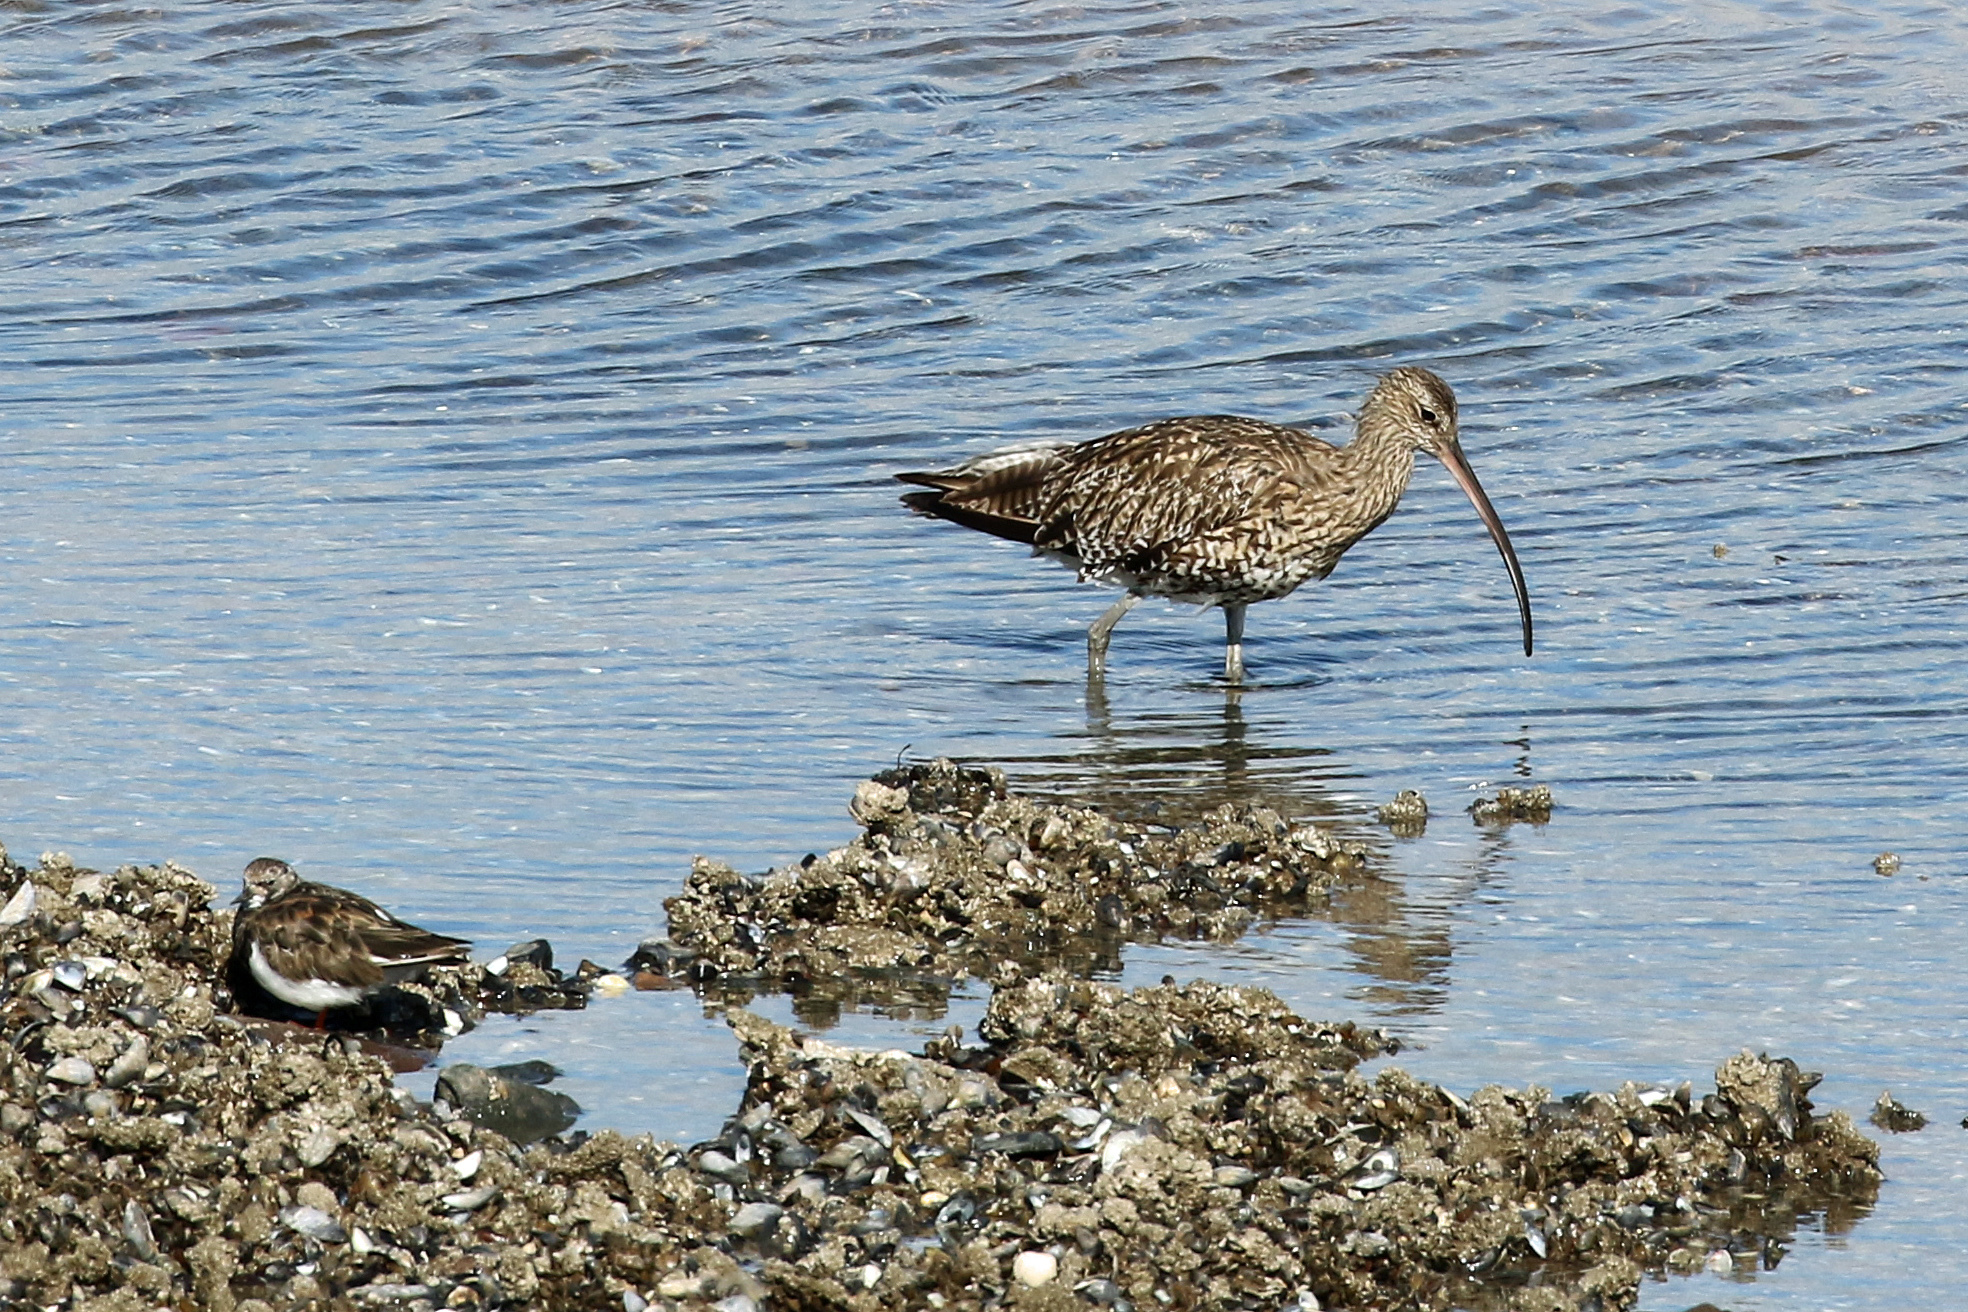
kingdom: Animalia
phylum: Chordata
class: Aves
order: Charadriiformes
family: Scolopacidae
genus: Numenius
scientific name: Numenius arquata
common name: Eurasian curlew
